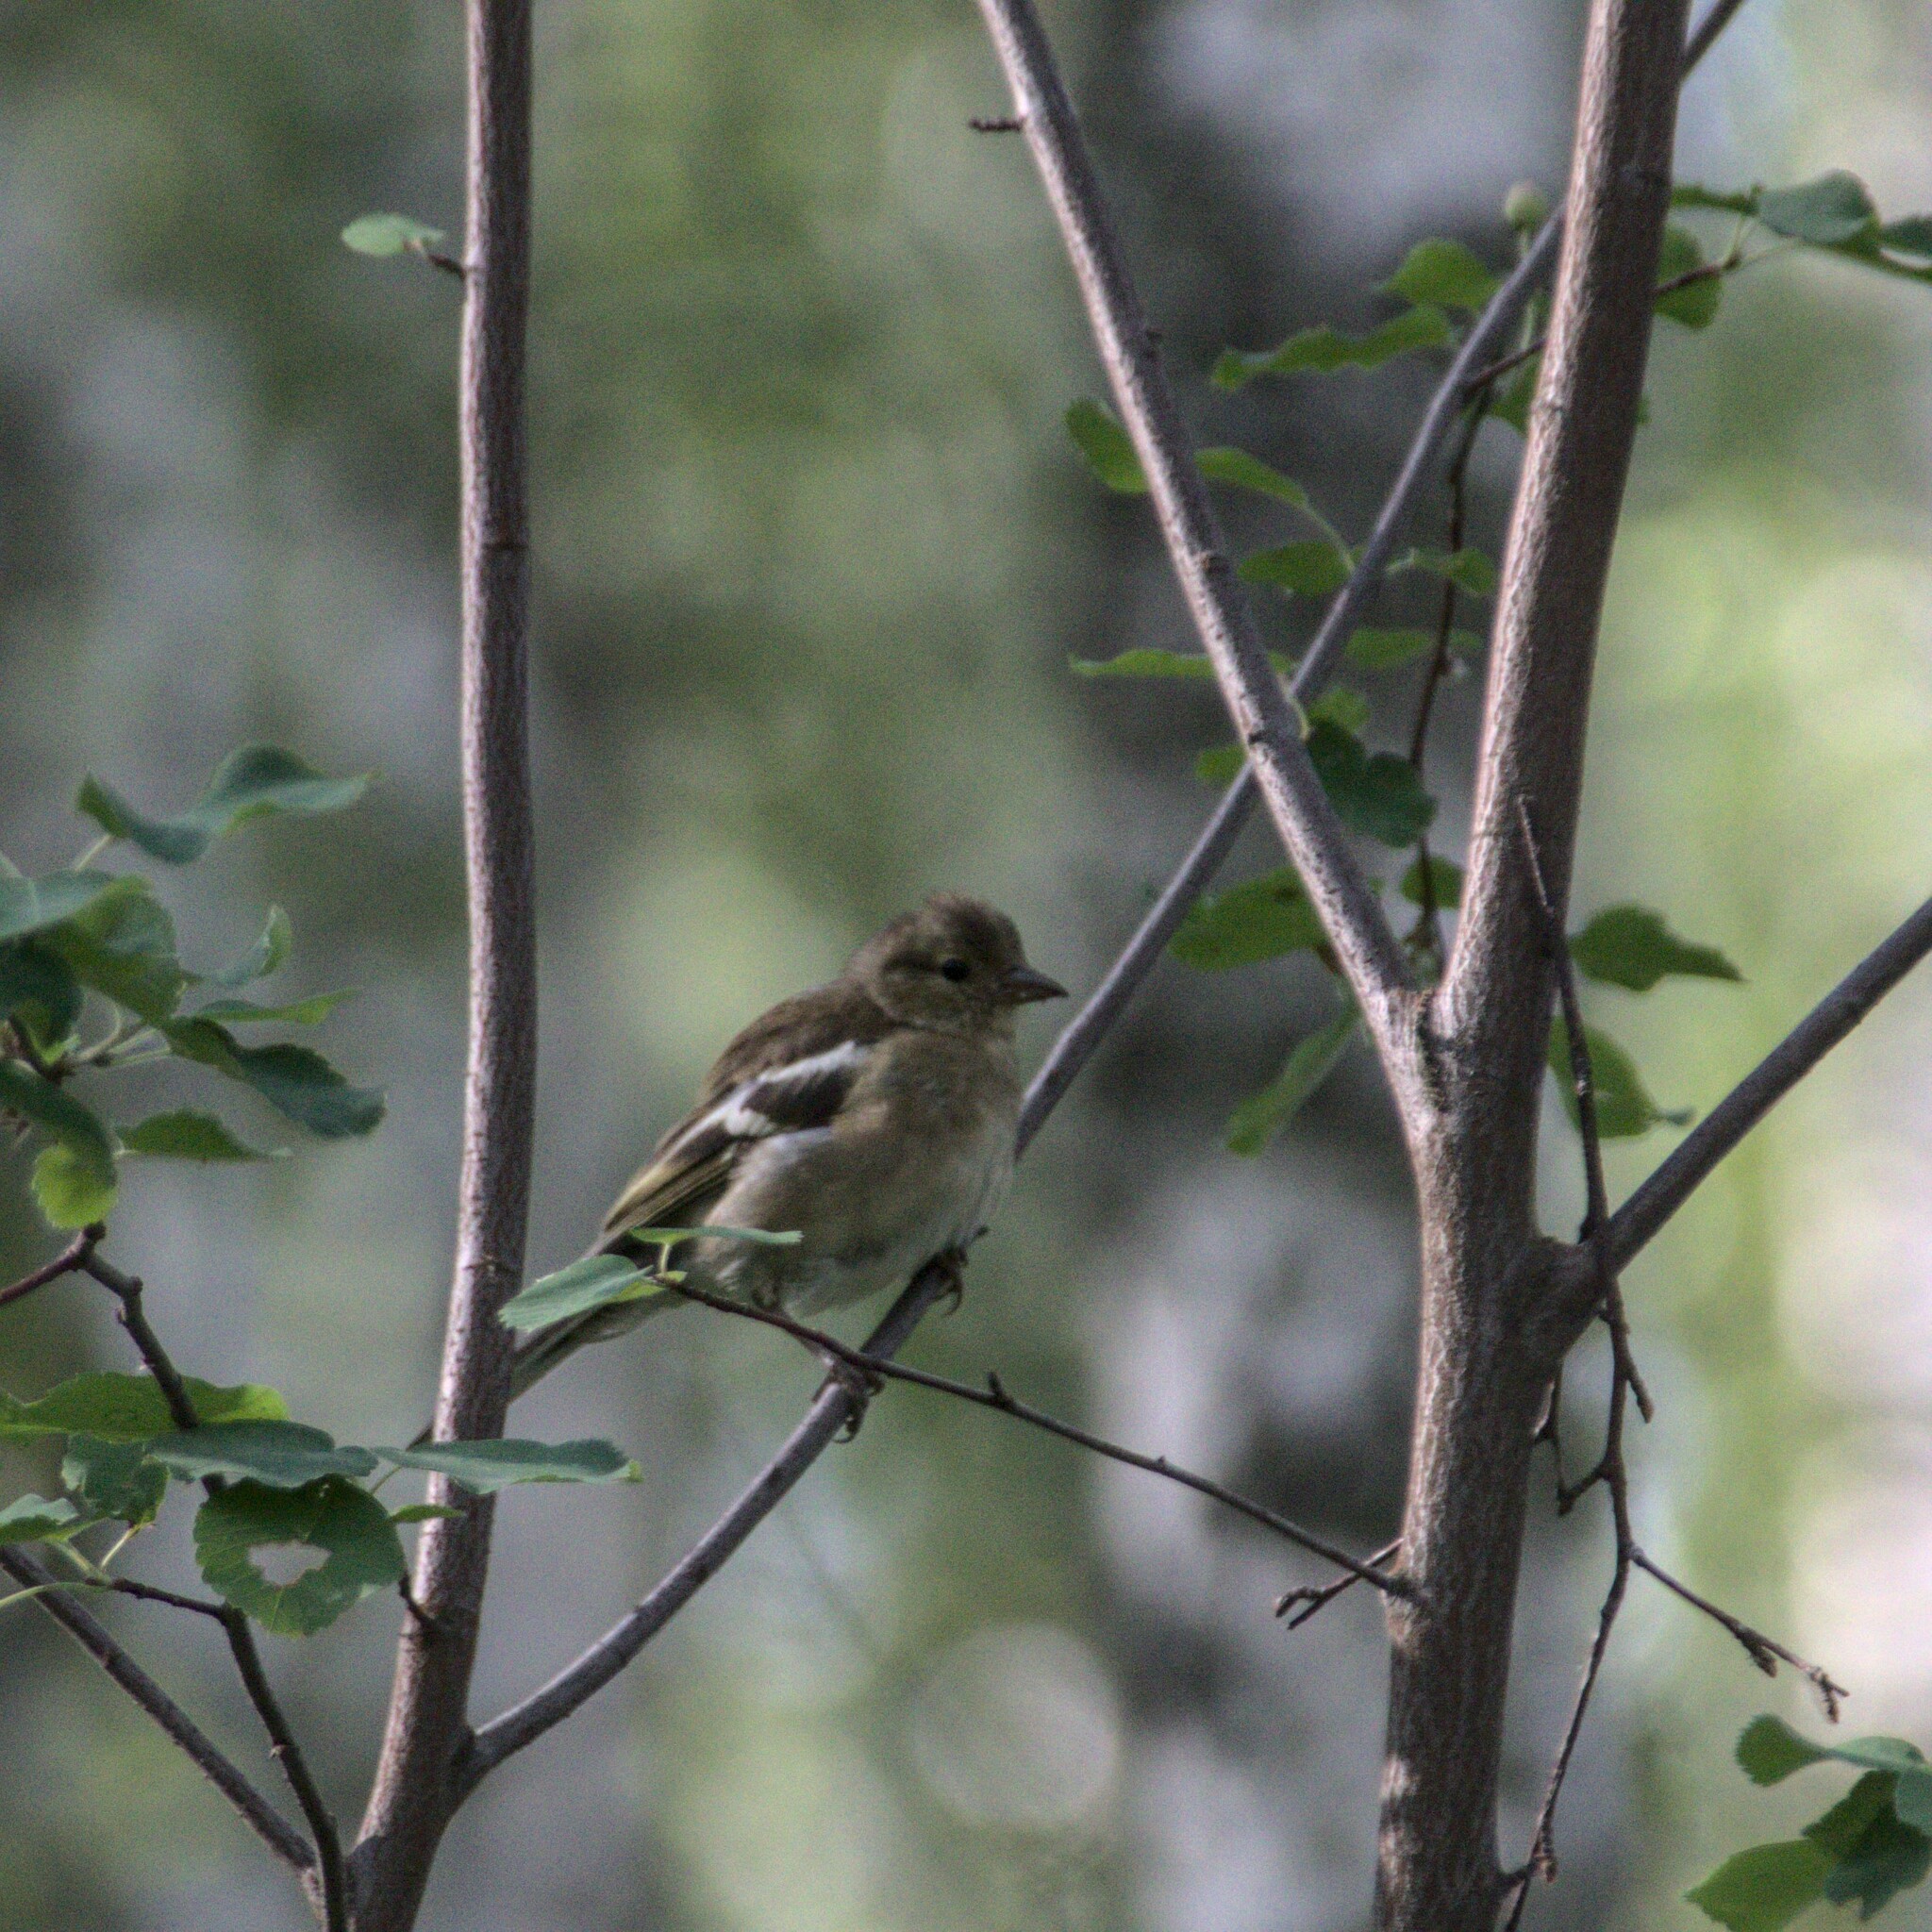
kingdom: Animalia
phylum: Chordata
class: Aves
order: Passeriformes
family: Fringillidae
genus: Fringilla
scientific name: Fringilla coelebs
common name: Common chaffinch
